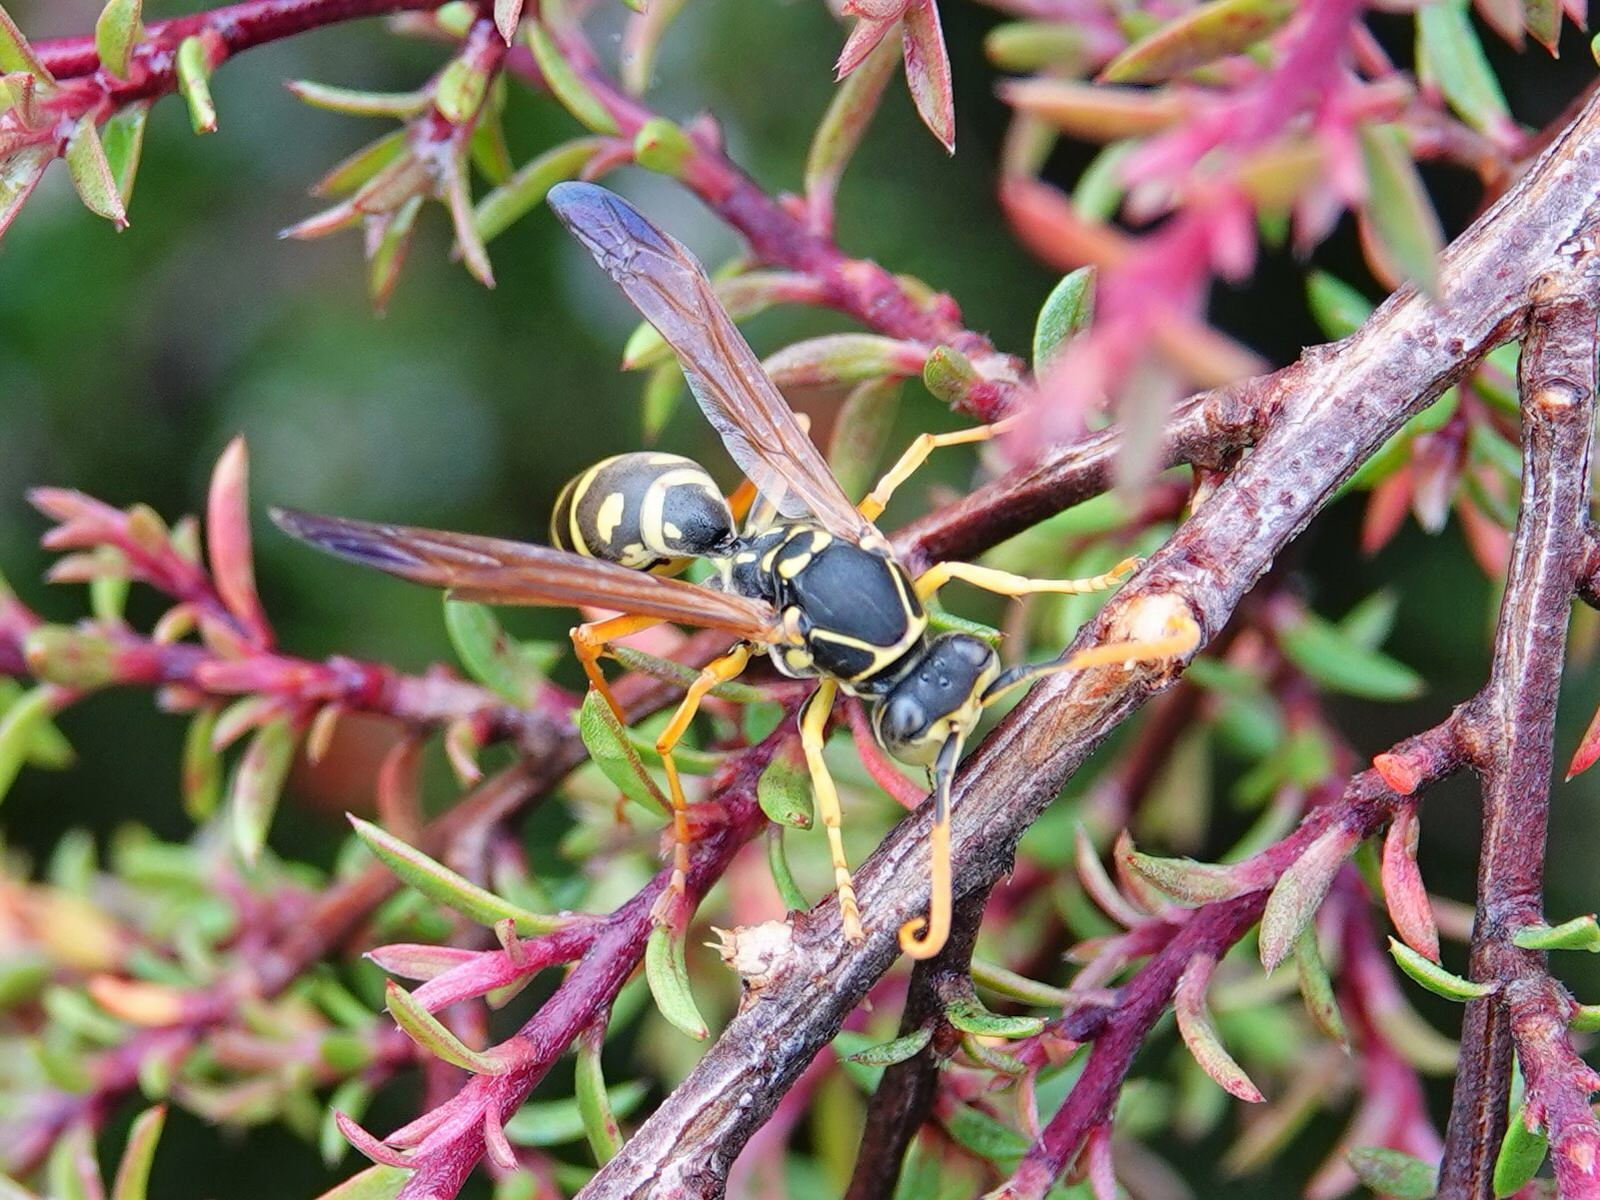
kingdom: Animalia
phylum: Arthropoda
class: Insecta
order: Hymenoptera
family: Eumenidae
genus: Polistes
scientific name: Polistes chinensis
